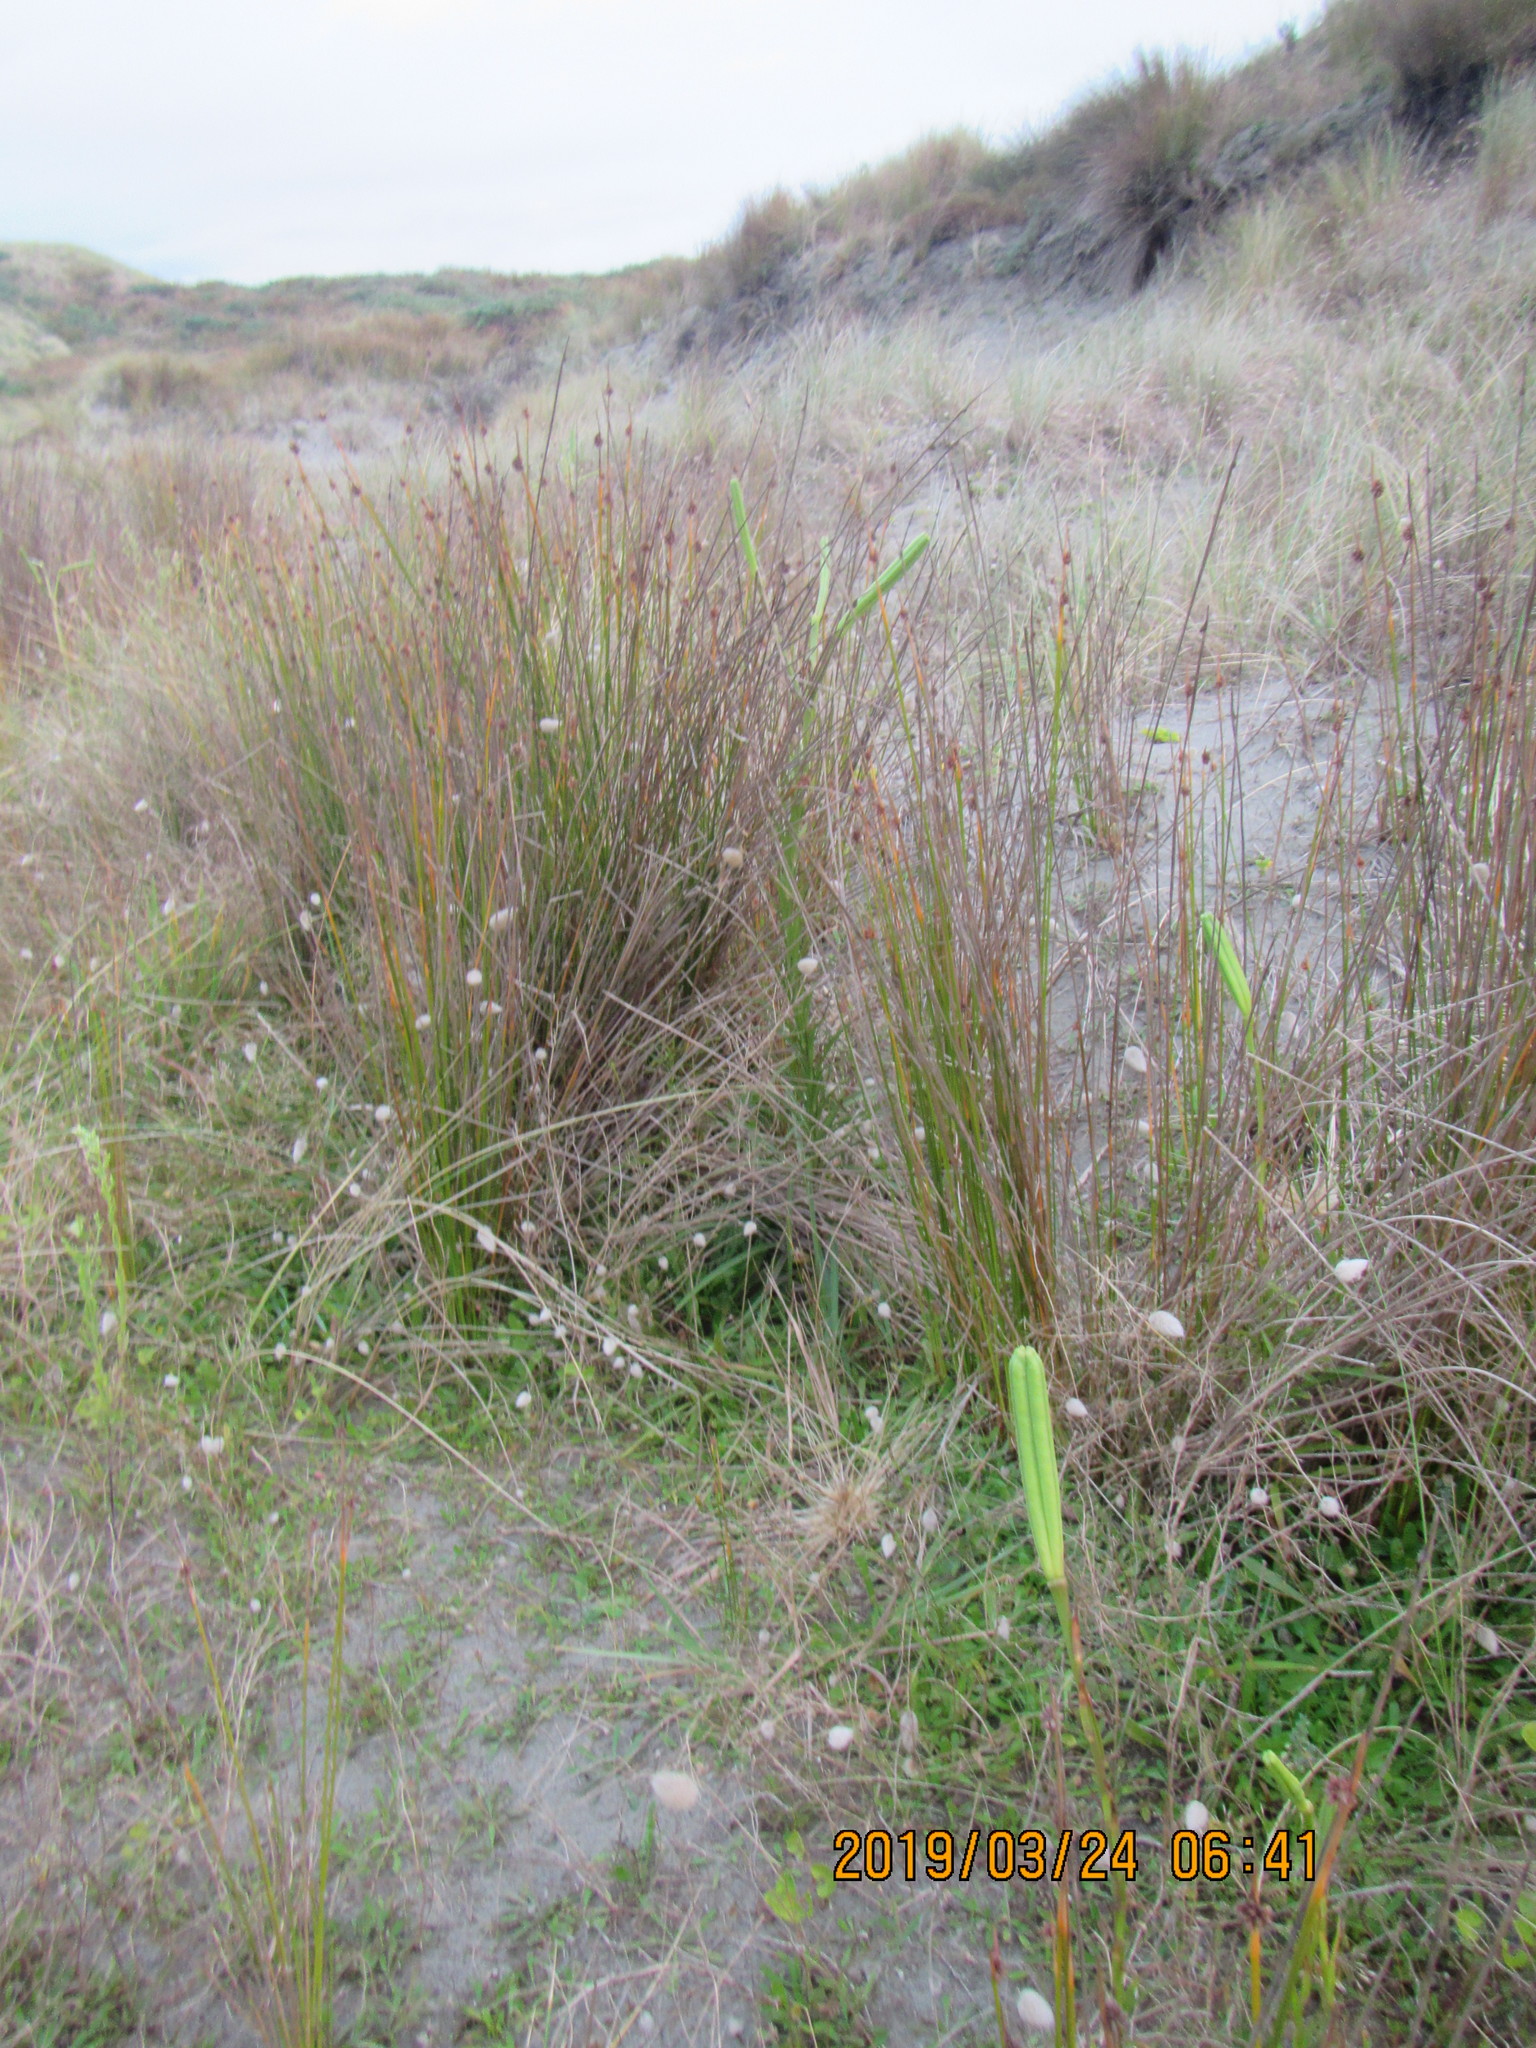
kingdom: Plantae
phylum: Tracheophyta
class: Liliopsida
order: Liliales
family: Liliaceae
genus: Lilium
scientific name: Lilium formosanum
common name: Formosa lily
